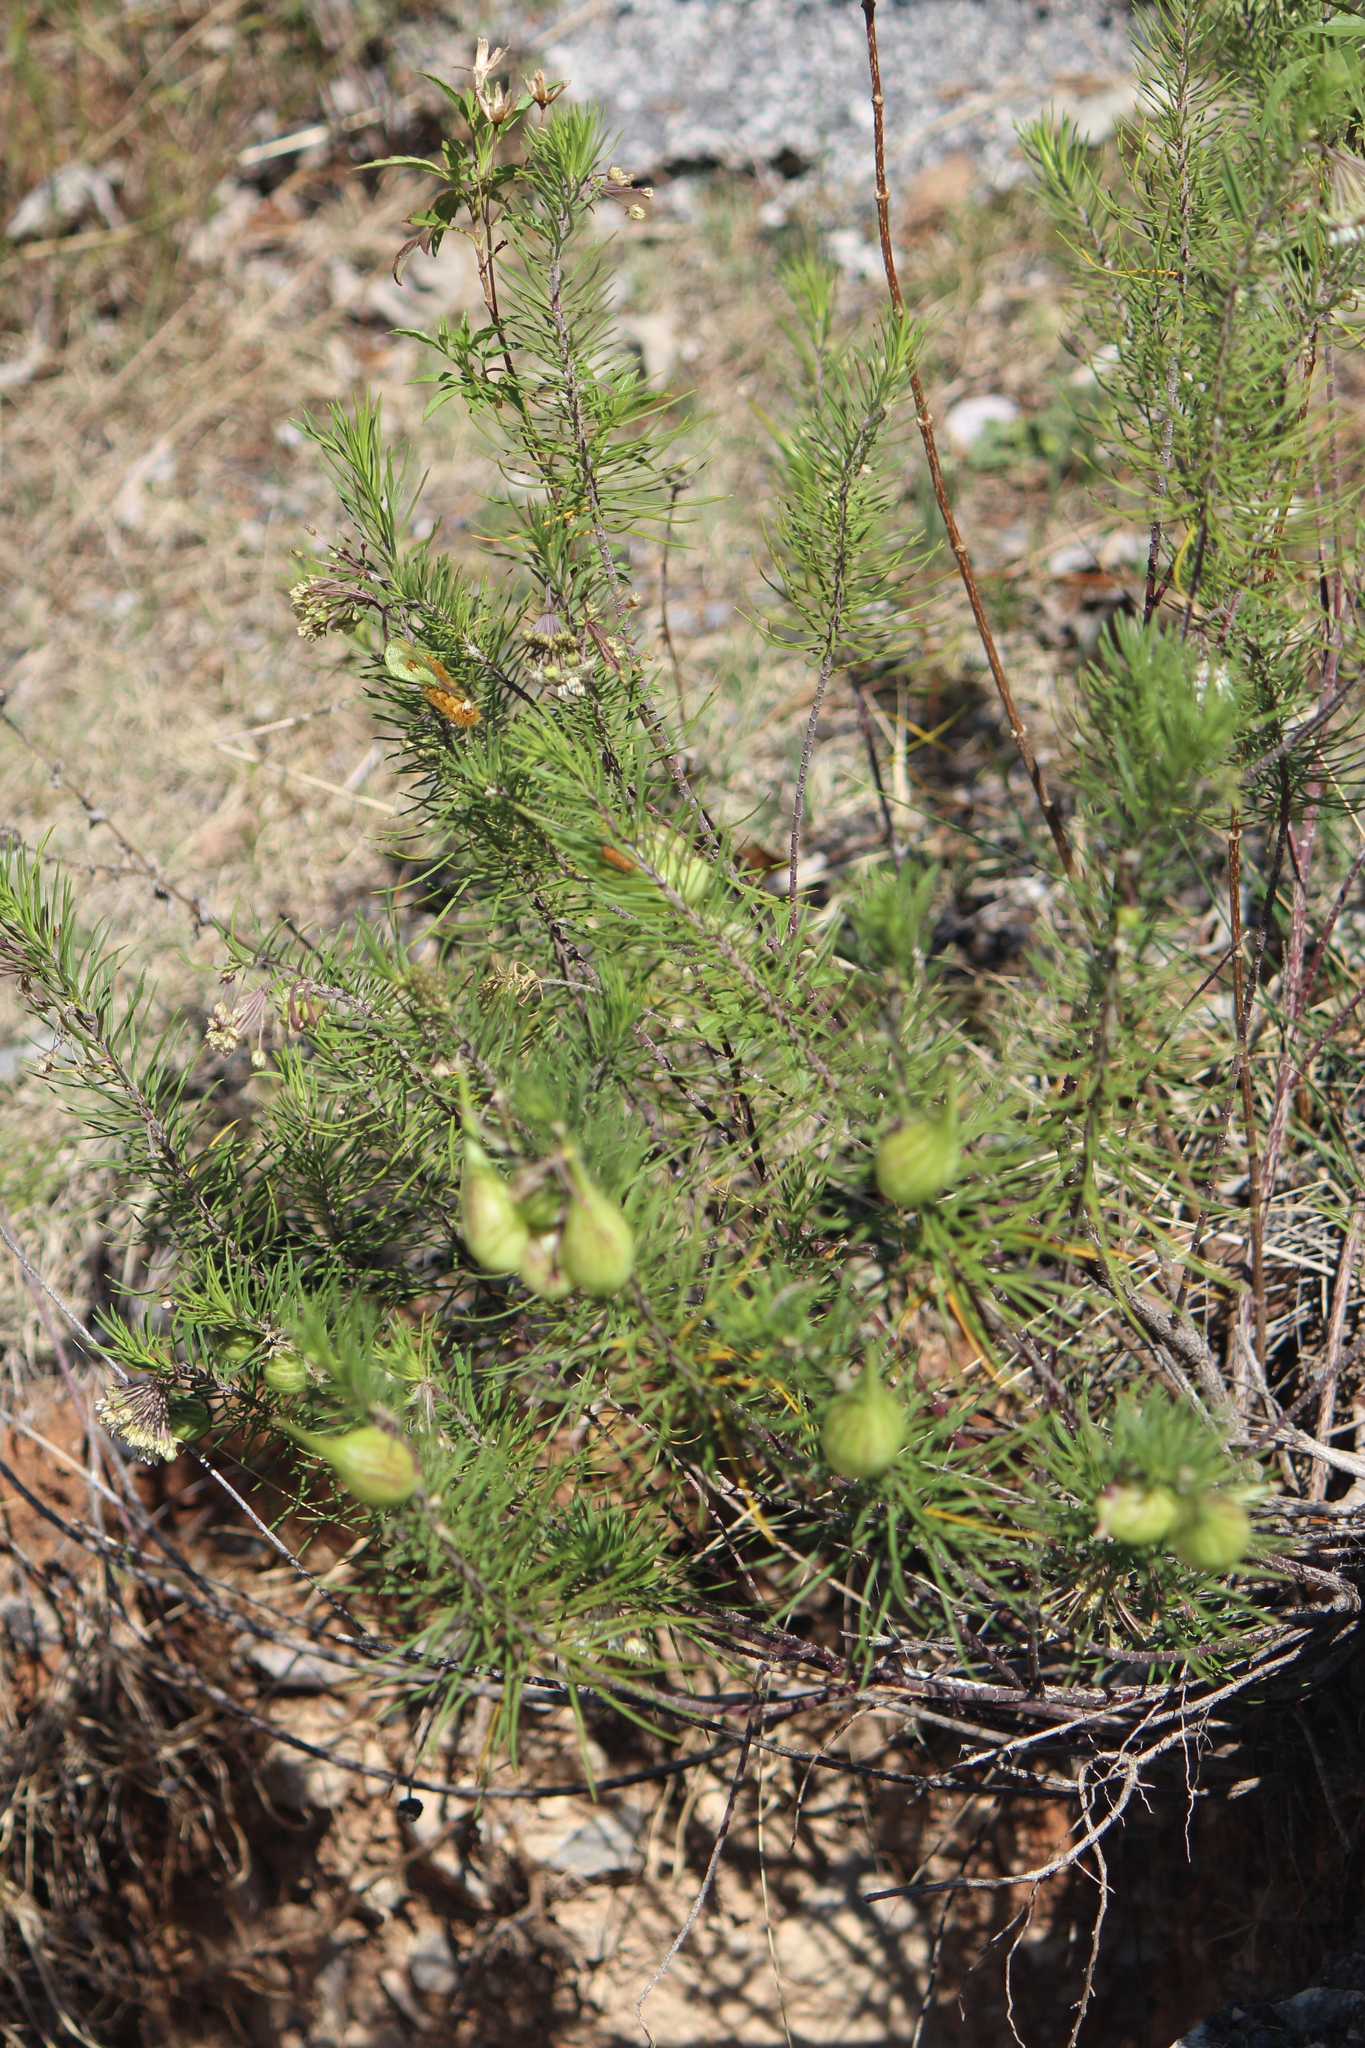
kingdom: Plantae
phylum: Tracheophyta
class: Magnoliopsida
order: Gentianales
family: Apocynaceae
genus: Asclepias
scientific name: Asclepias linaria
